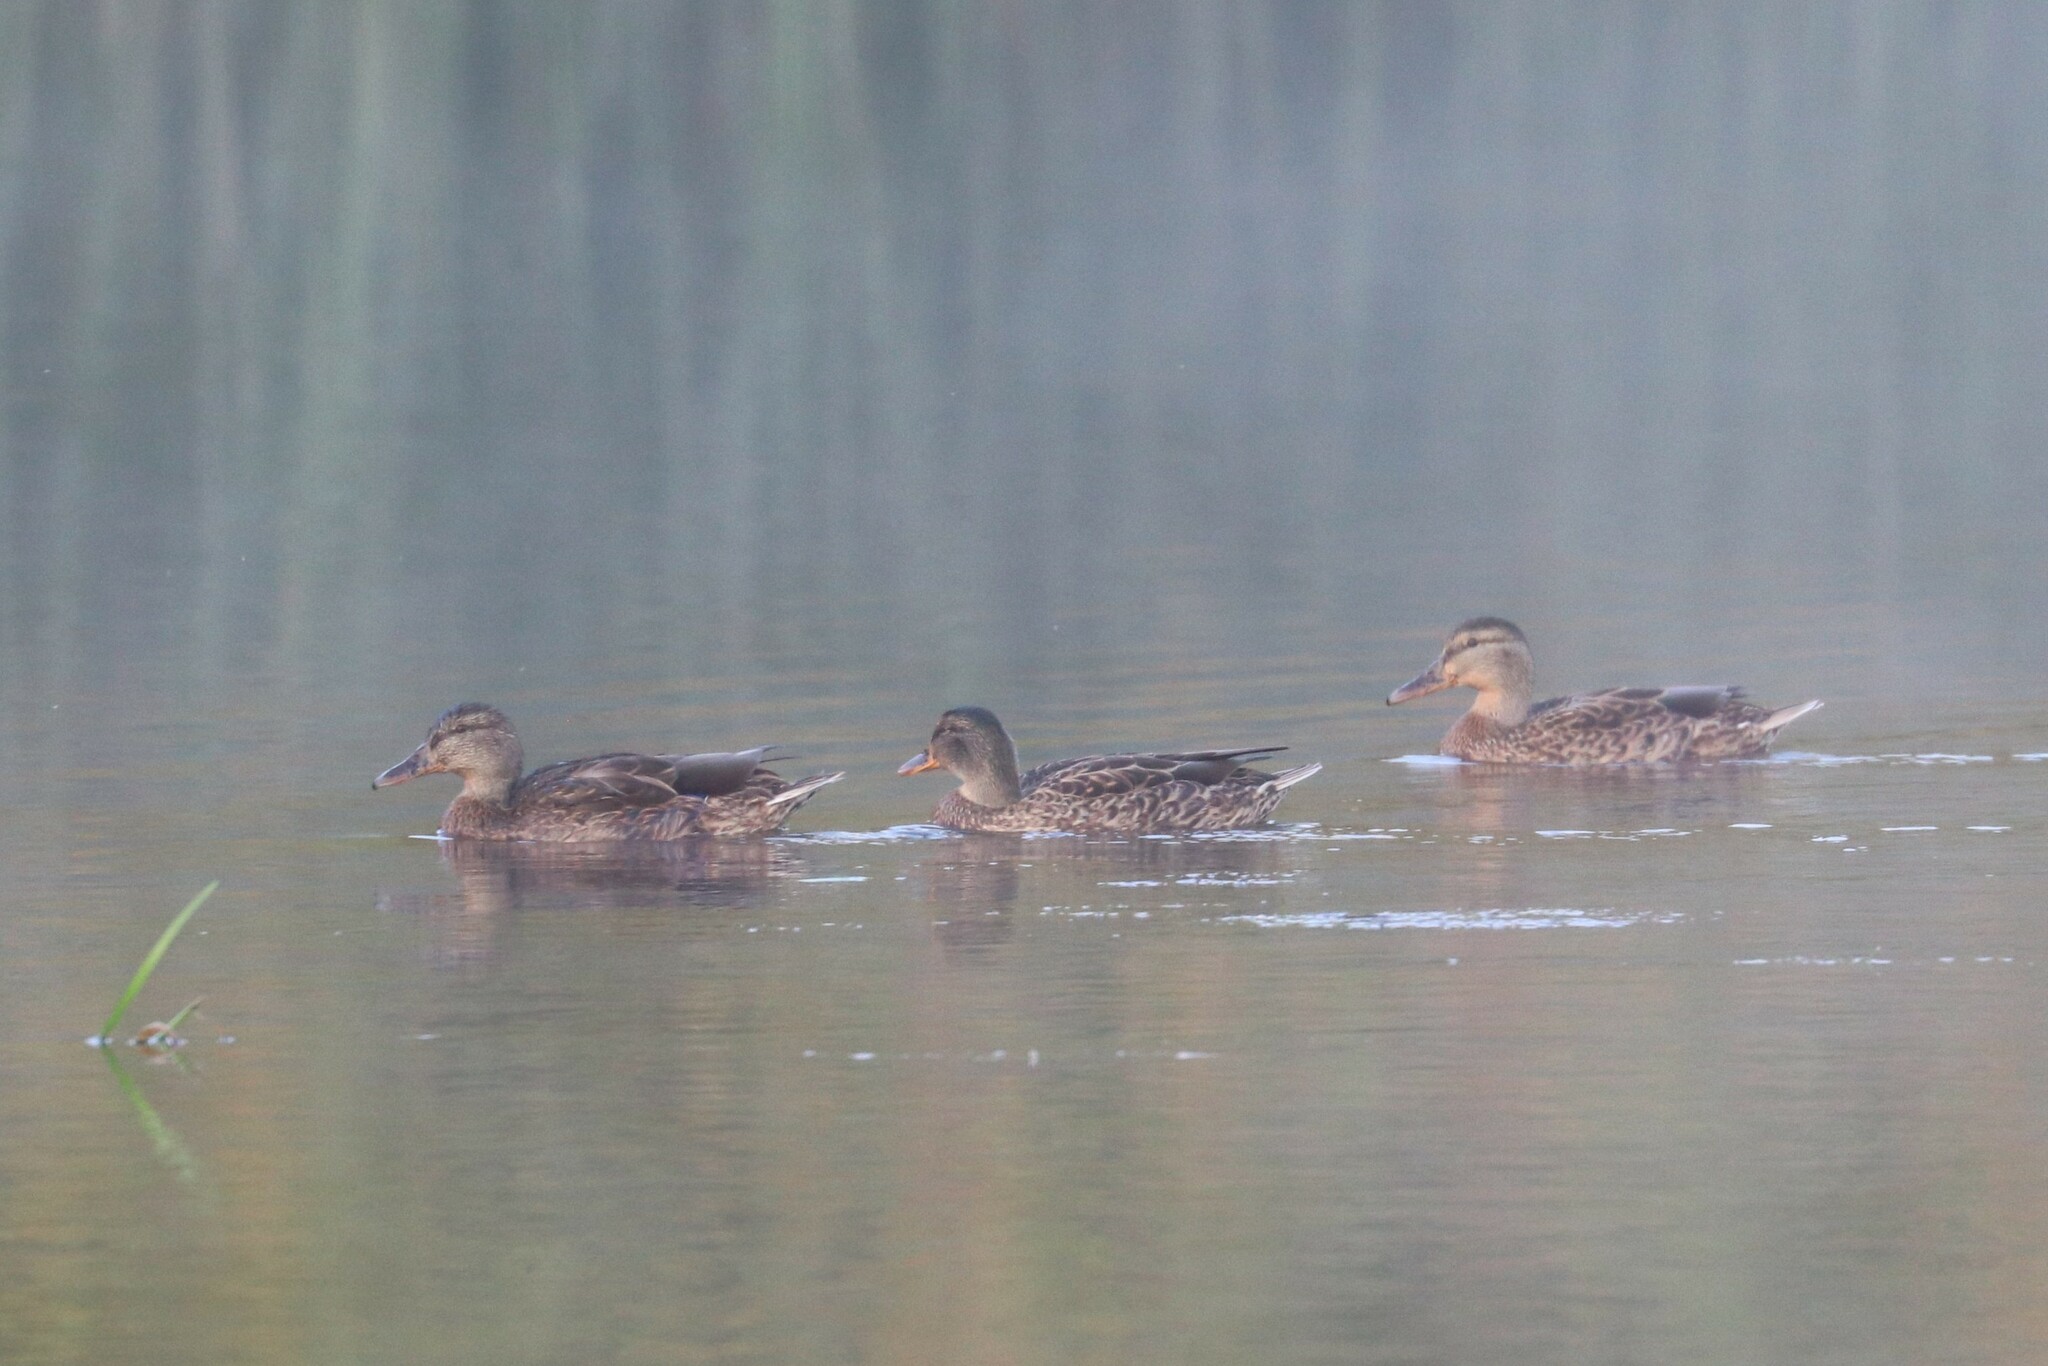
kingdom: Animalia
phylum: Chordata
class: Aves
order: Anseriformes
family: Anatidae
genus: Anas
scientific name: Anas platyrhynchos
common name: Mallard
